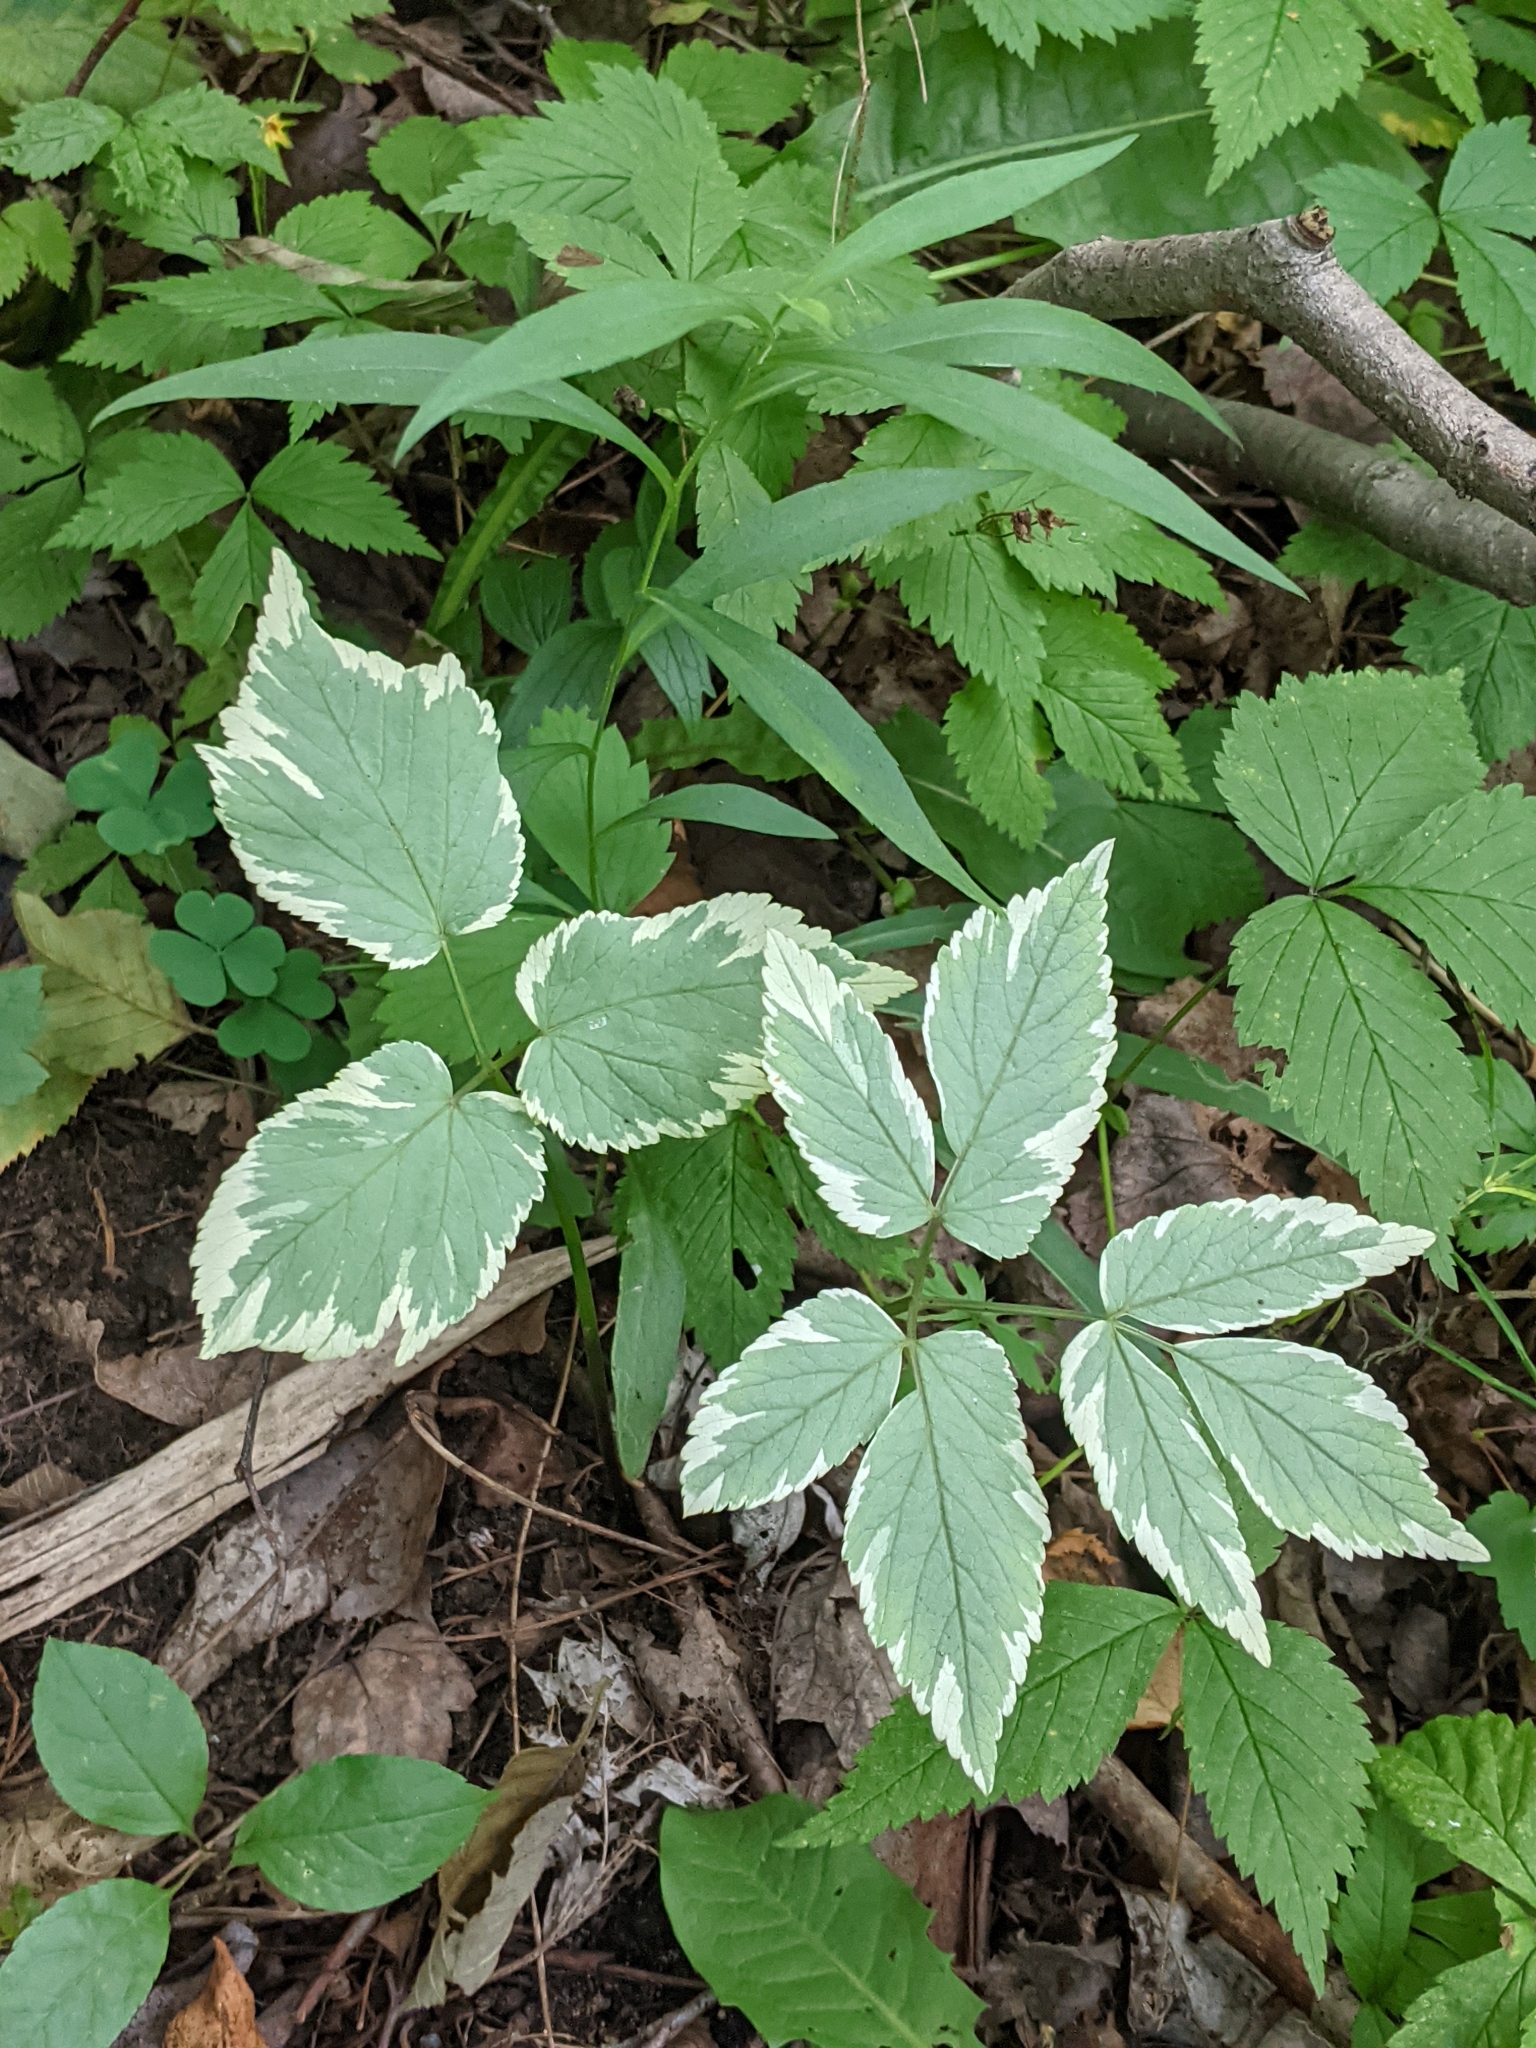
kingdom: Plantae
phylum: Tracheophyta
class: Magnoliopsida
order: Apiales
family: Apiaceae
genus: Aegopodium
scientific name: Aegopodium podagraria
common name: Ground-elder
